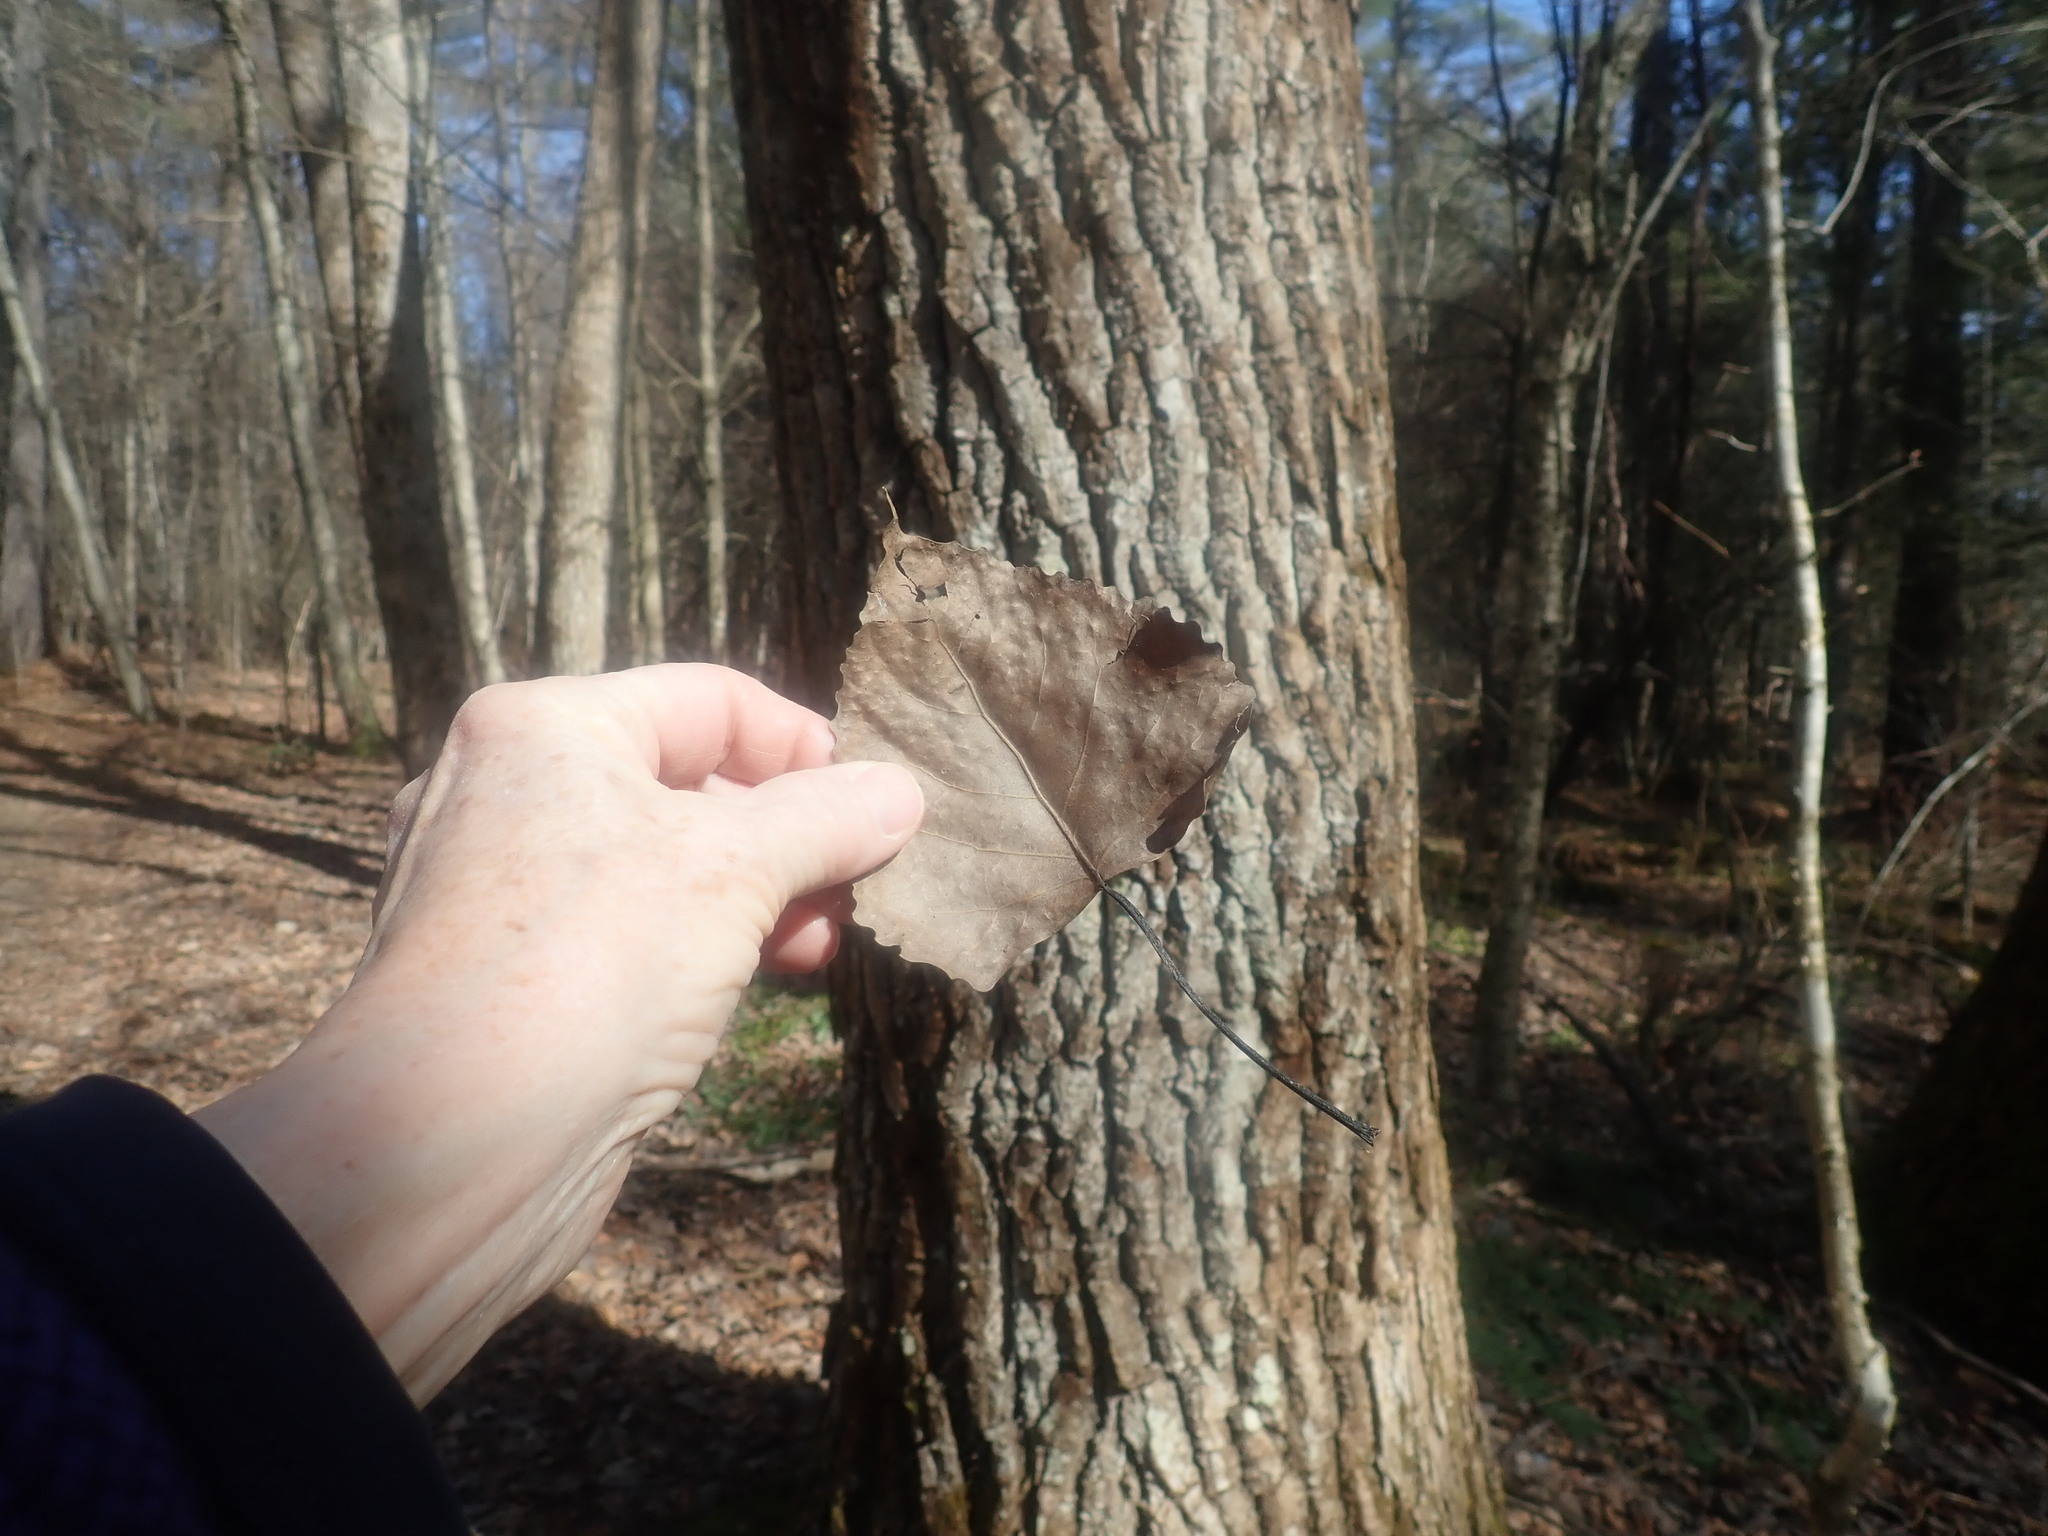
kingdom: Plantae
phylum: Tracheophyta
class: Magnoliopsida
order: Malpighiales
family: Salicaceae
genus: Populus
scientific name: Populus deltoides
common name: Eastern cottonwood
